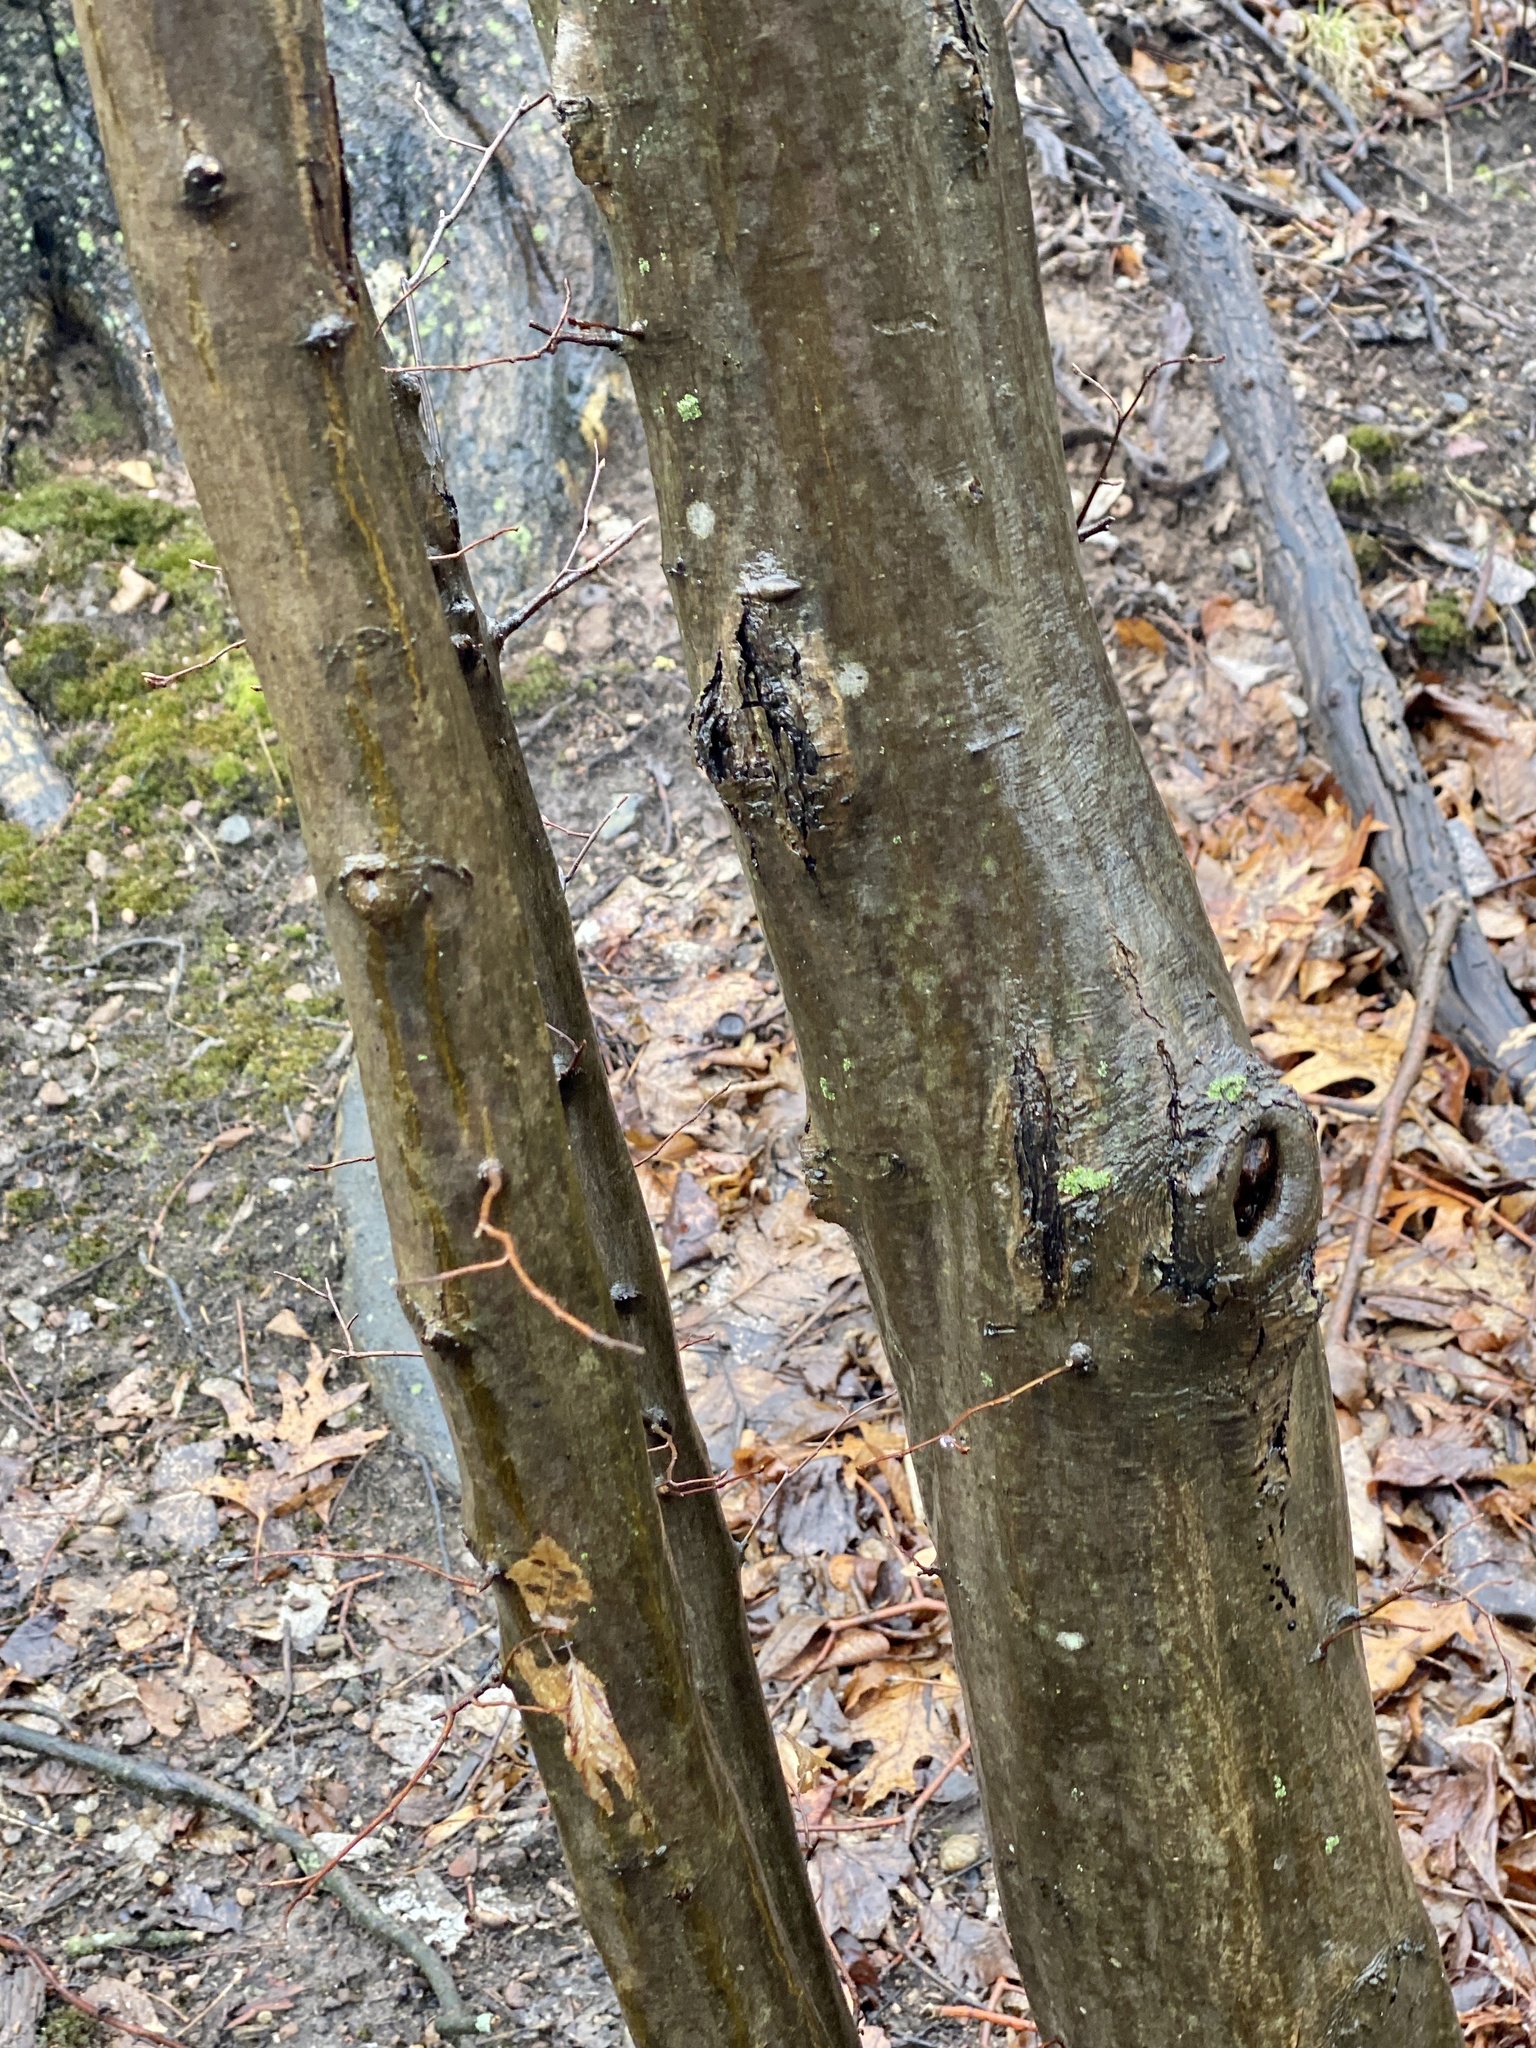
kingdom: Plantae
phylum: Tracheophyta
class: Magnoliopsida
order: Fagales
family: Betulaceae
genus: Carpinus
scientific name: Carpinus caroliniana
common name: American hornbeam
